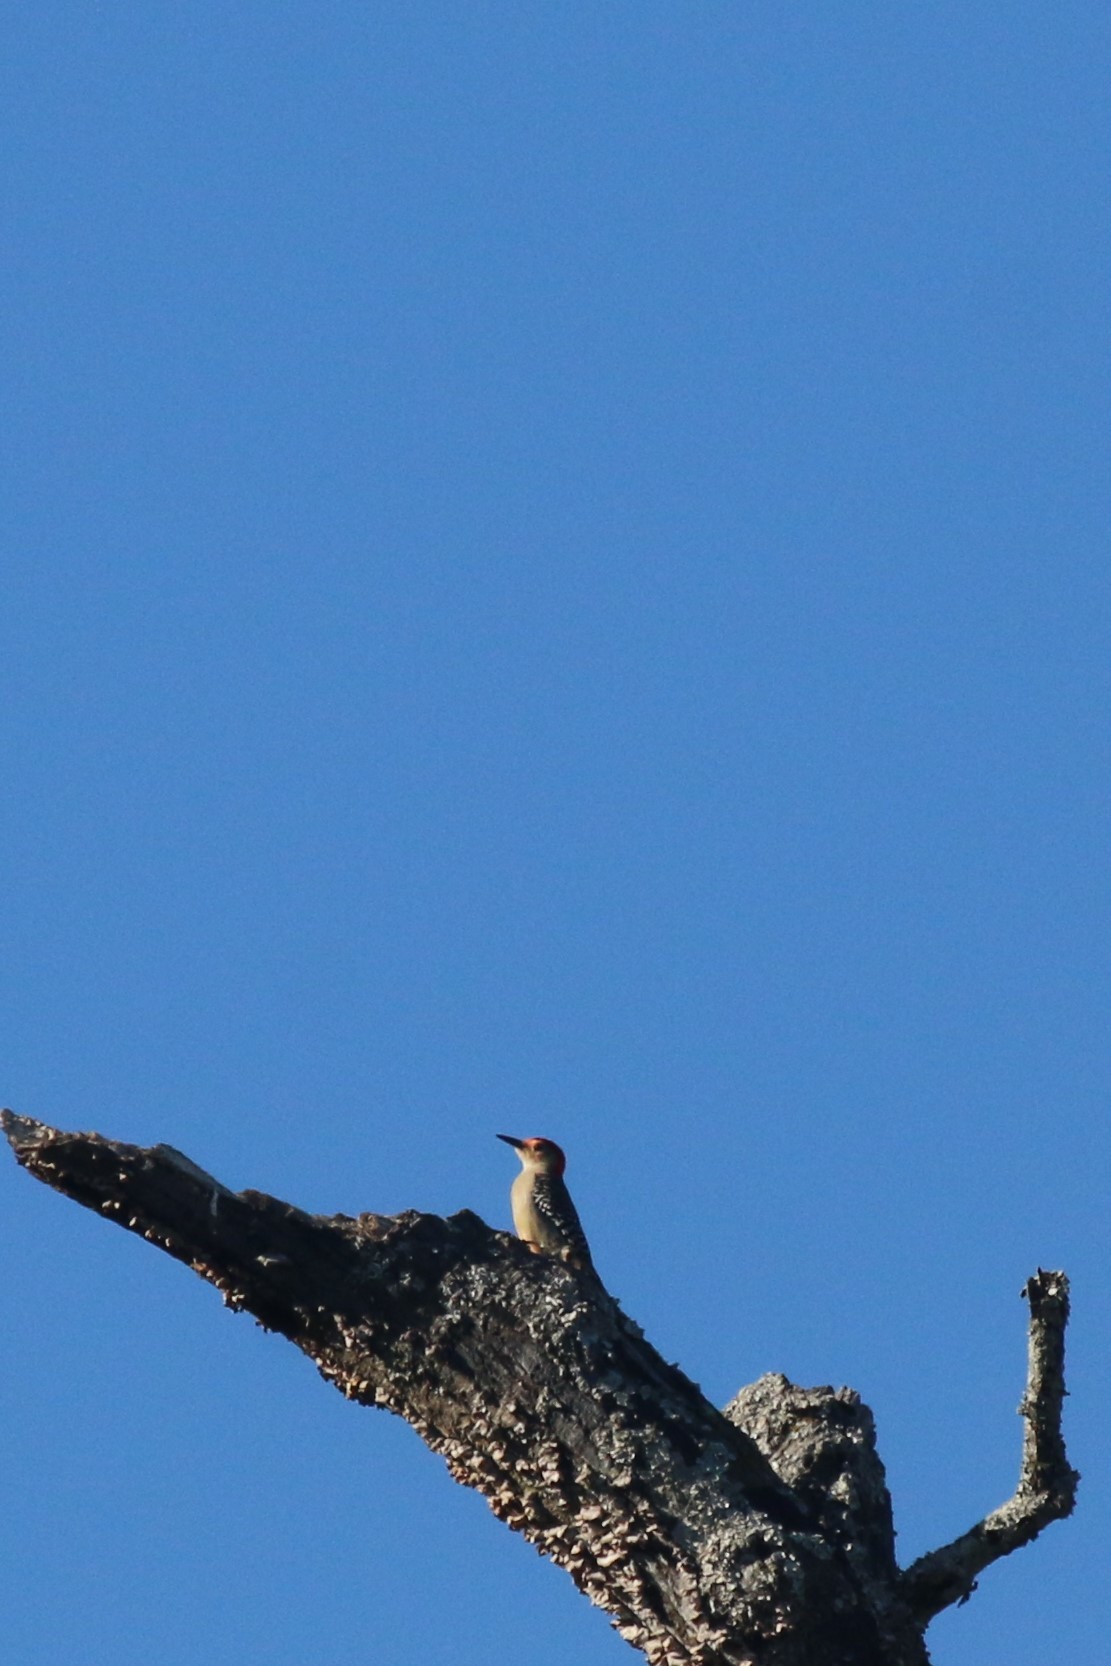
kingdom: Animalia
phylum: Chordata
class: Aves
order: Piciformes
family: Picidae
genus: Melanerpes
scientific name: Melanerpes carolinus
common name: Red-bellied woodpecker
